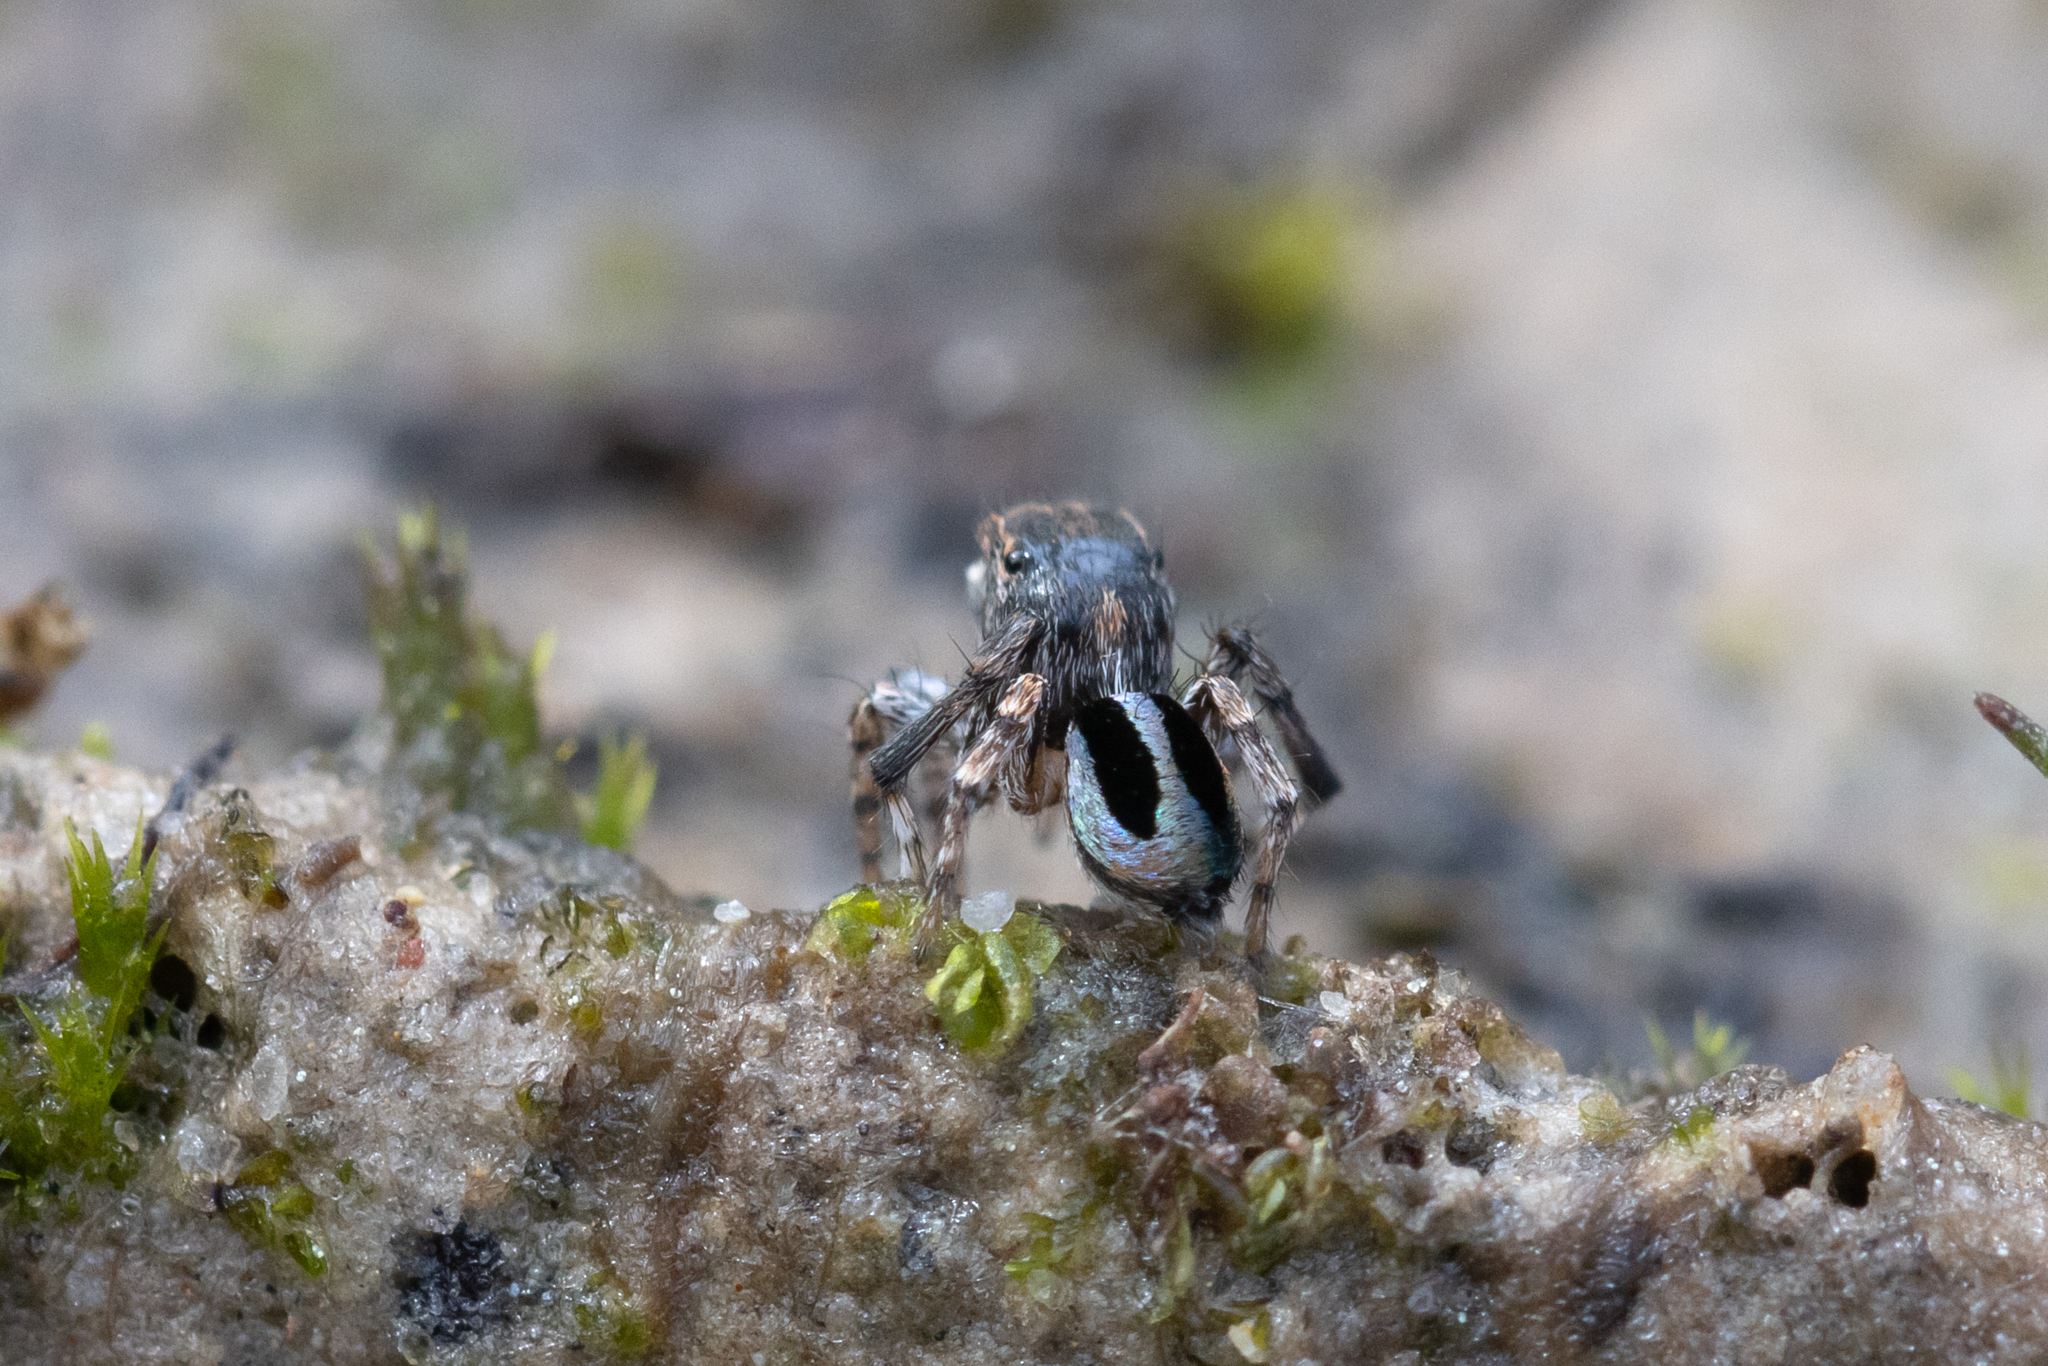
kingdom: Animalia
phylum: Arthropoda
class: Arachnida
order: Araneae
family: Salticidae
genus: Maratus
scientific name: Maratus chrysomelas
